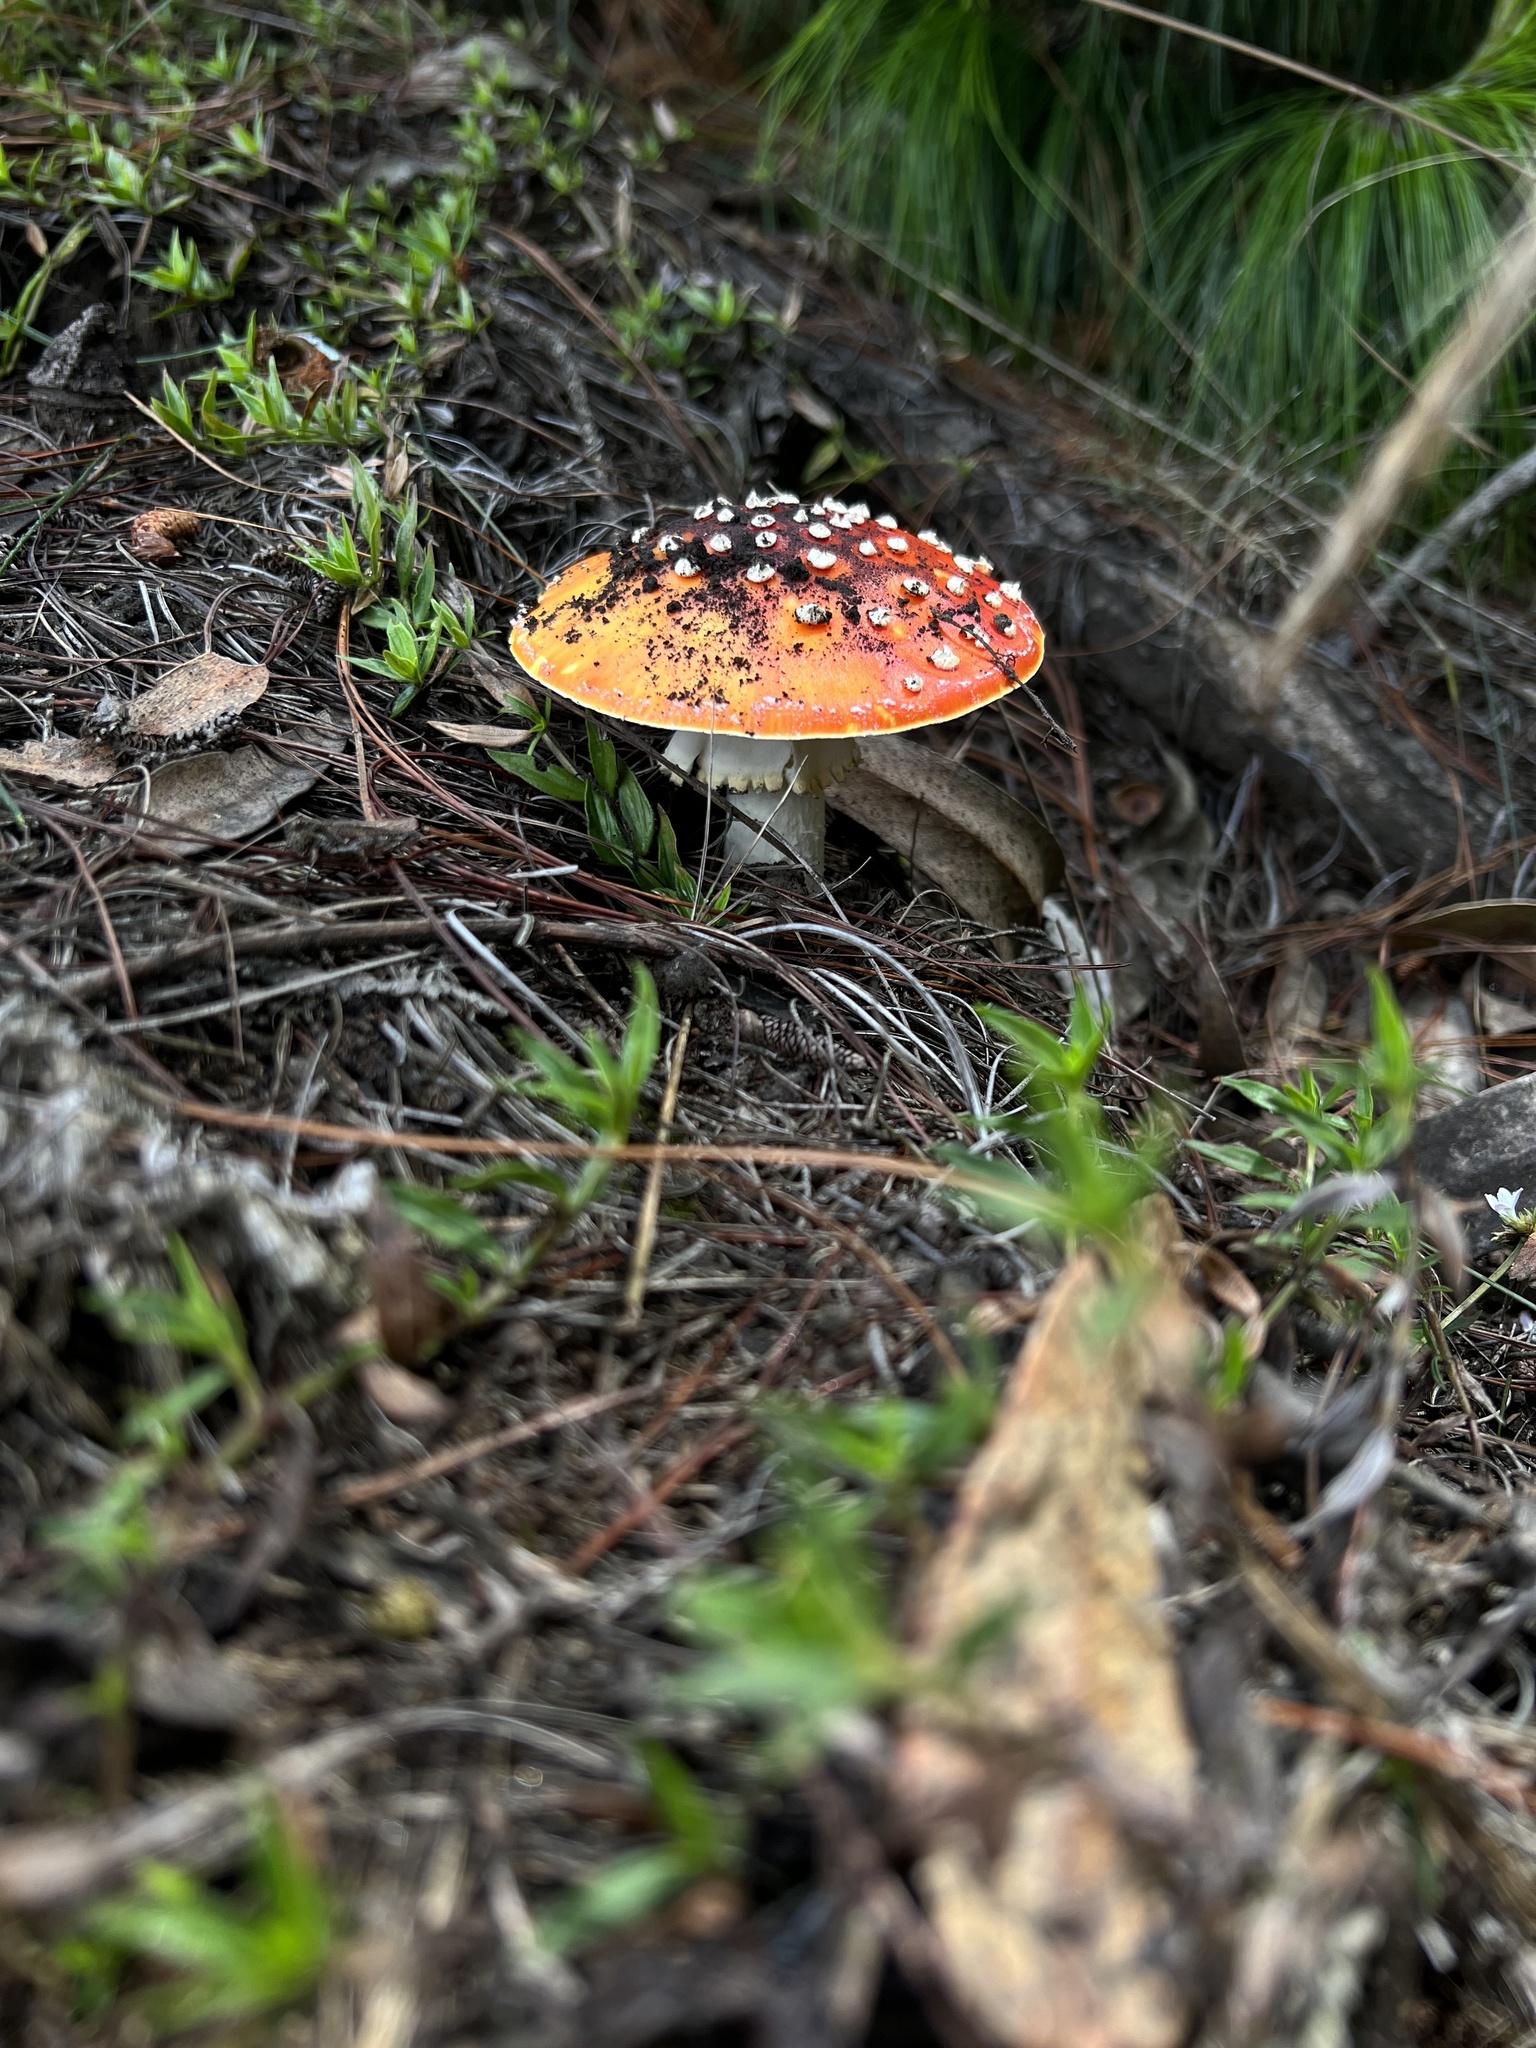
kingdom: Fungi
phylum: Basidiomycota
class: Agaricomycetes
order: Agaricales
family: Amanitaceae
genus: Amanita
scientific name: Amanita muscaria
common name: Fly agaric
